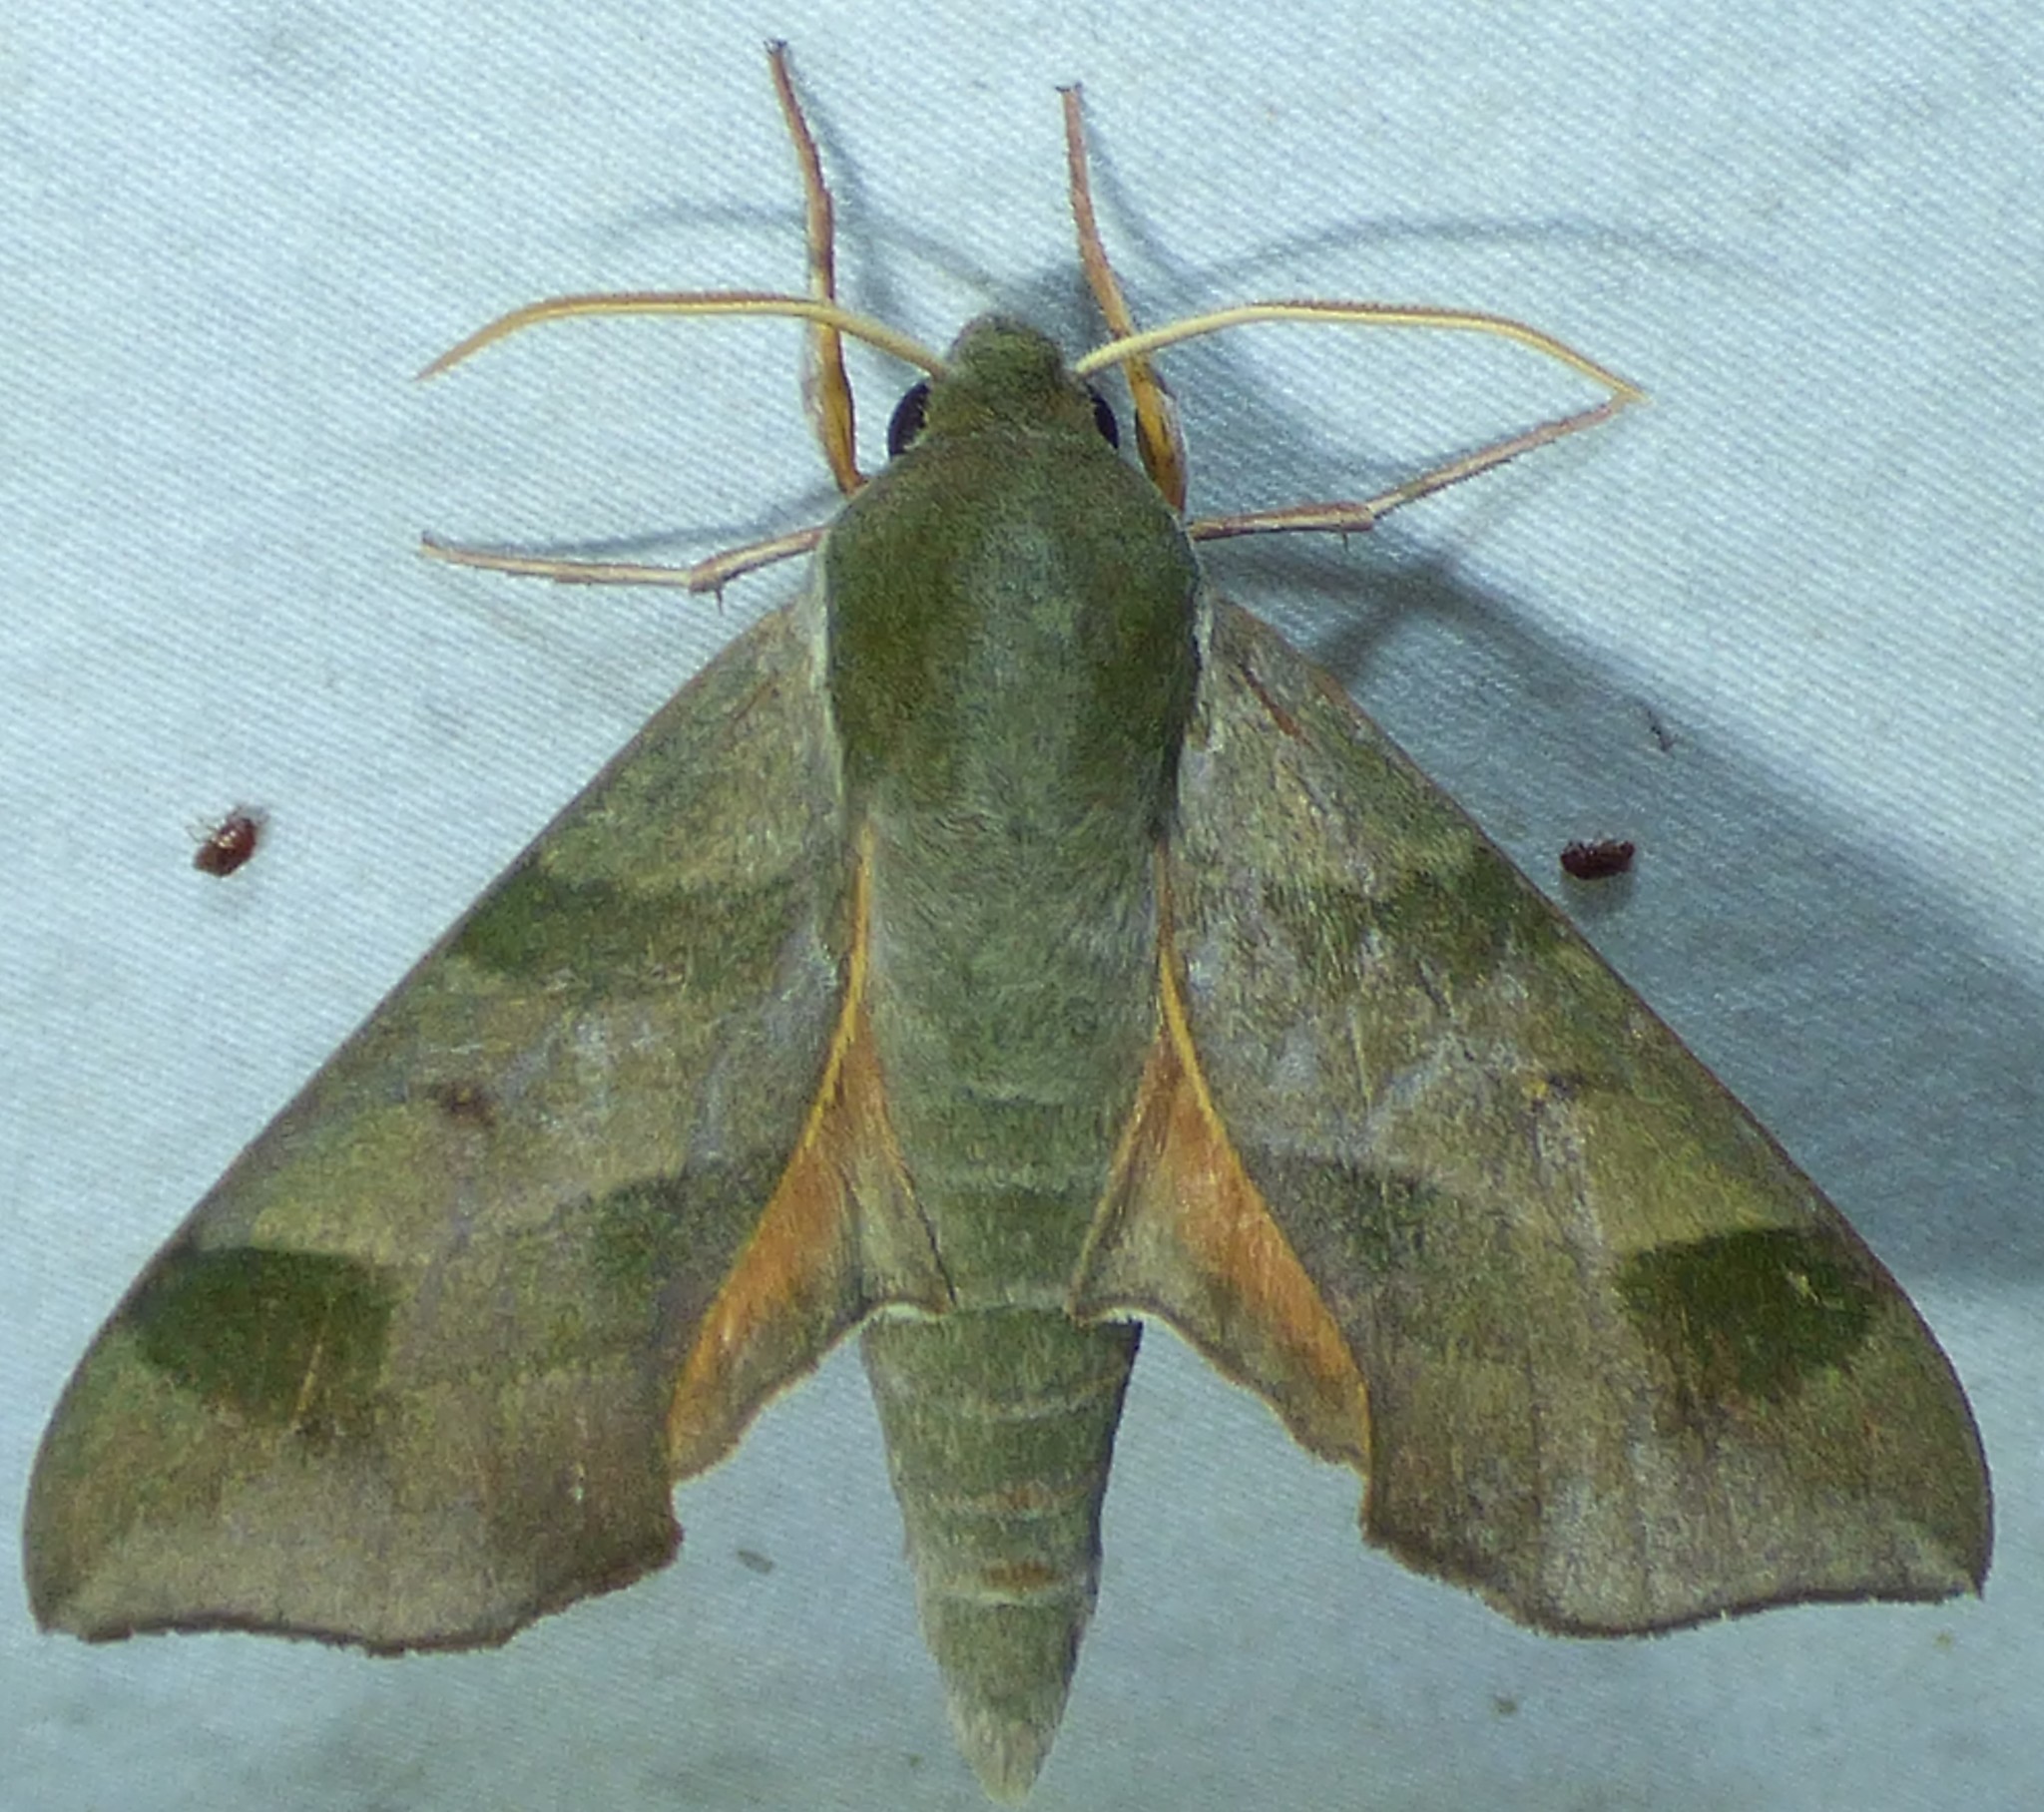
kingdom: Animalia
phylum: Arthropoda
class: Insecta
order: Lepidoptera
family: Sphingidae
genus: Darapsa
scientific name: Darapsa myron
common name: Hog sphinx
